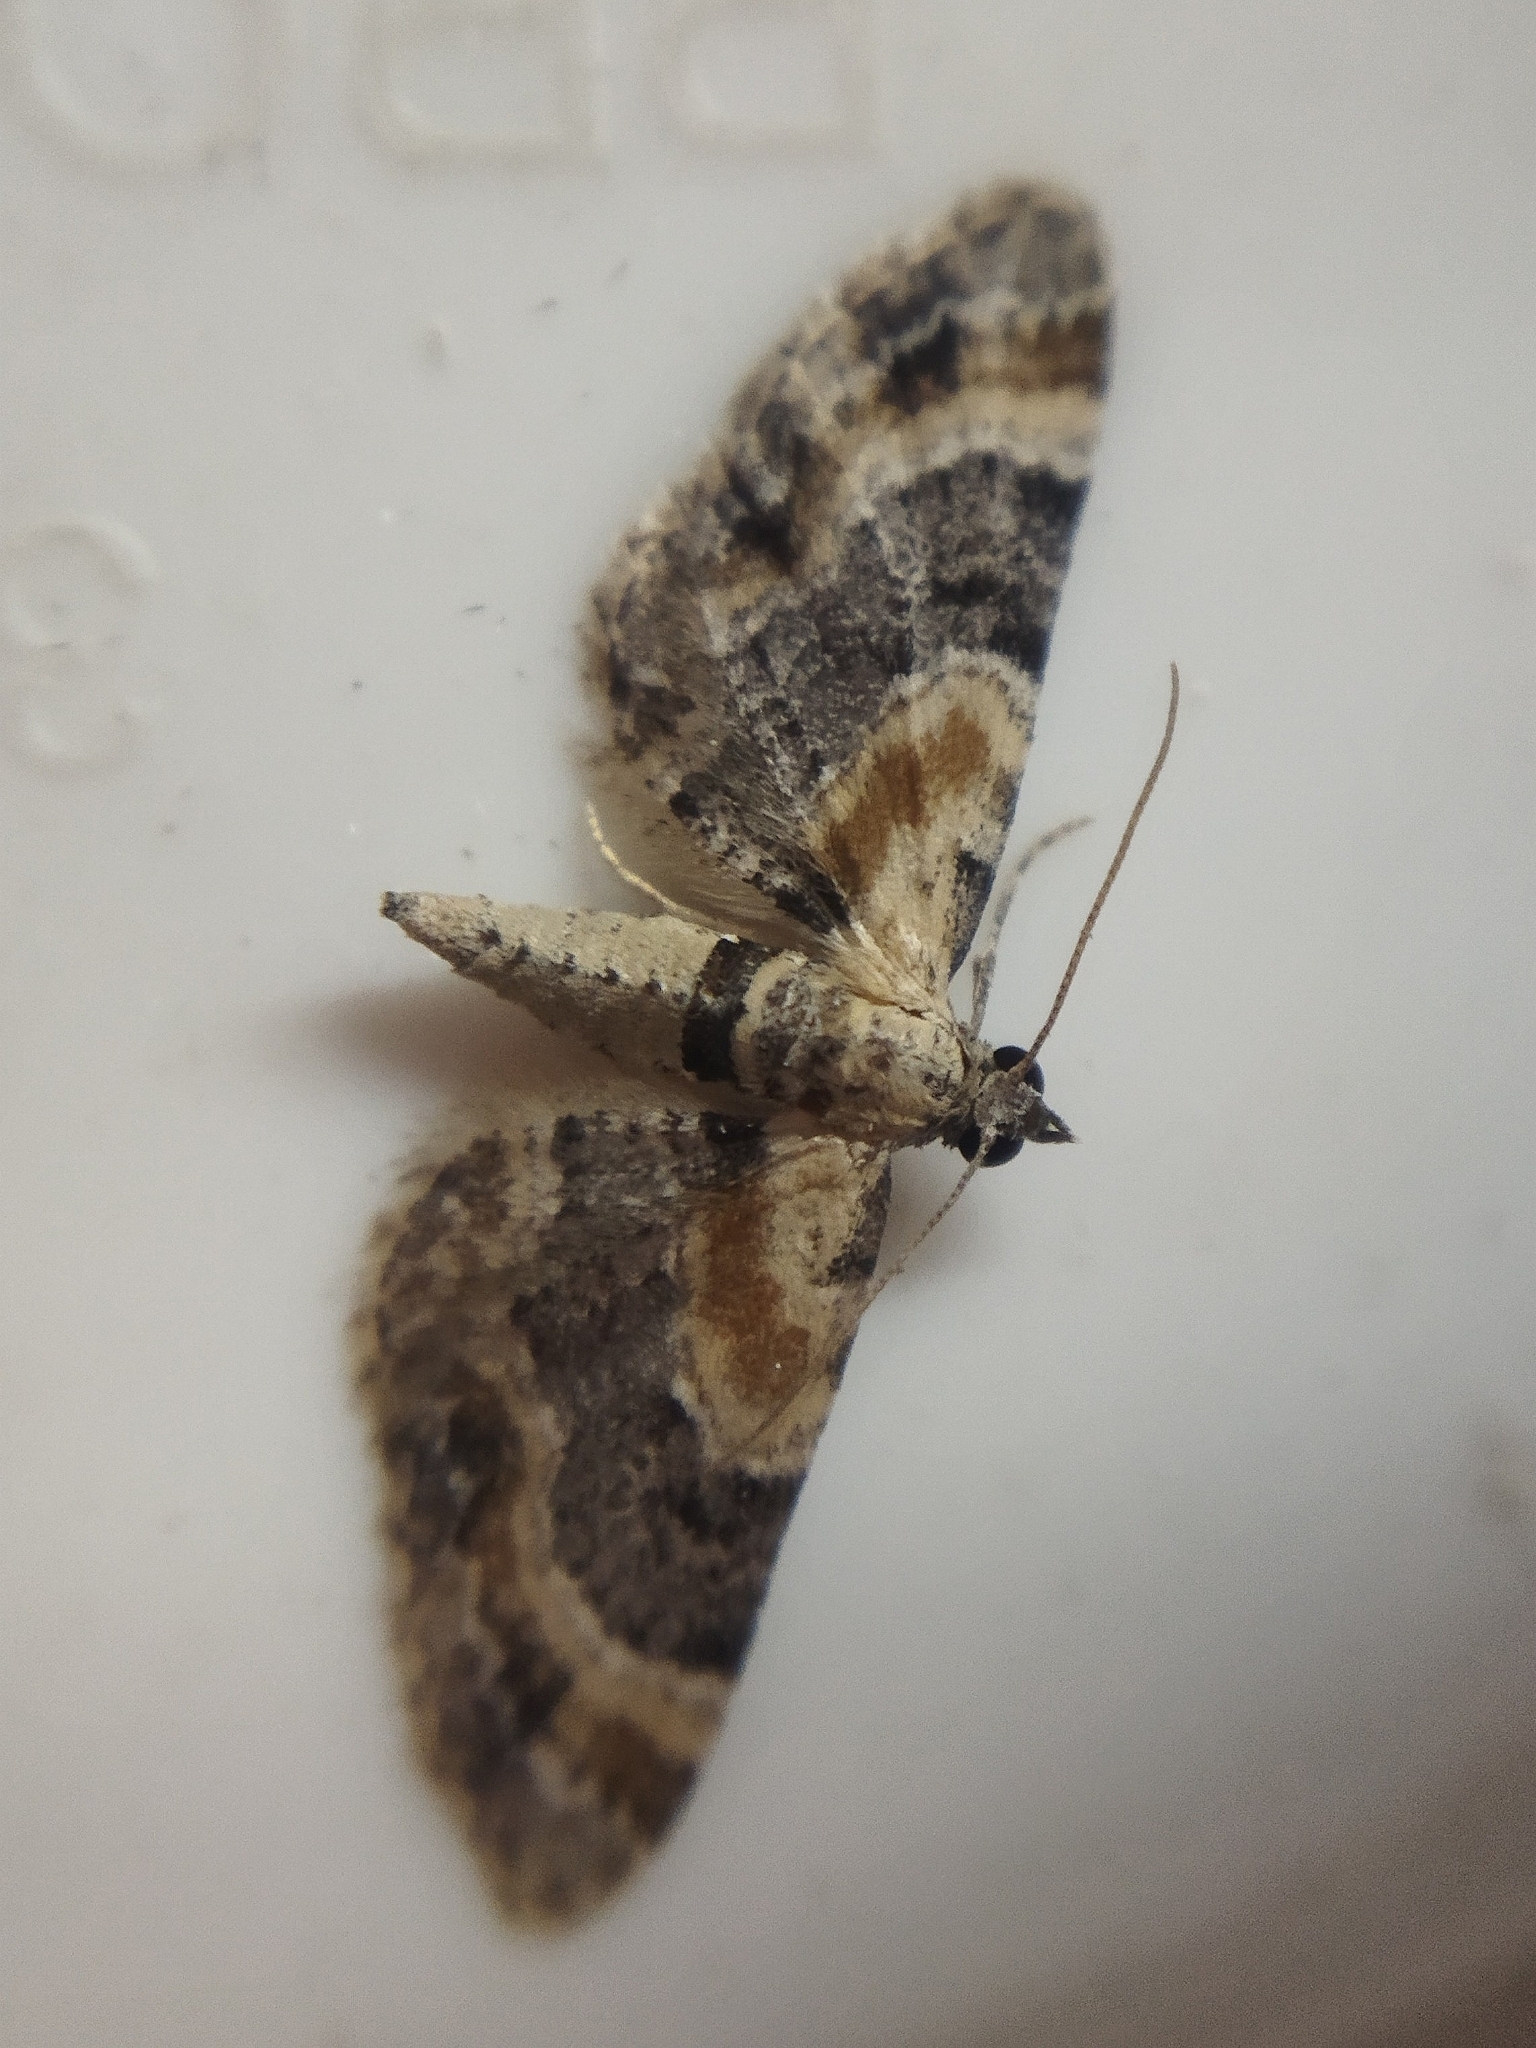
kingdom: Animalia
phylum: Arthropoda
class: Insecta
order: Lepidoptera
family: Geometridae
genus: Eupithecia
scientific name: Eupithecia linariata
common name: Toadflax pug
